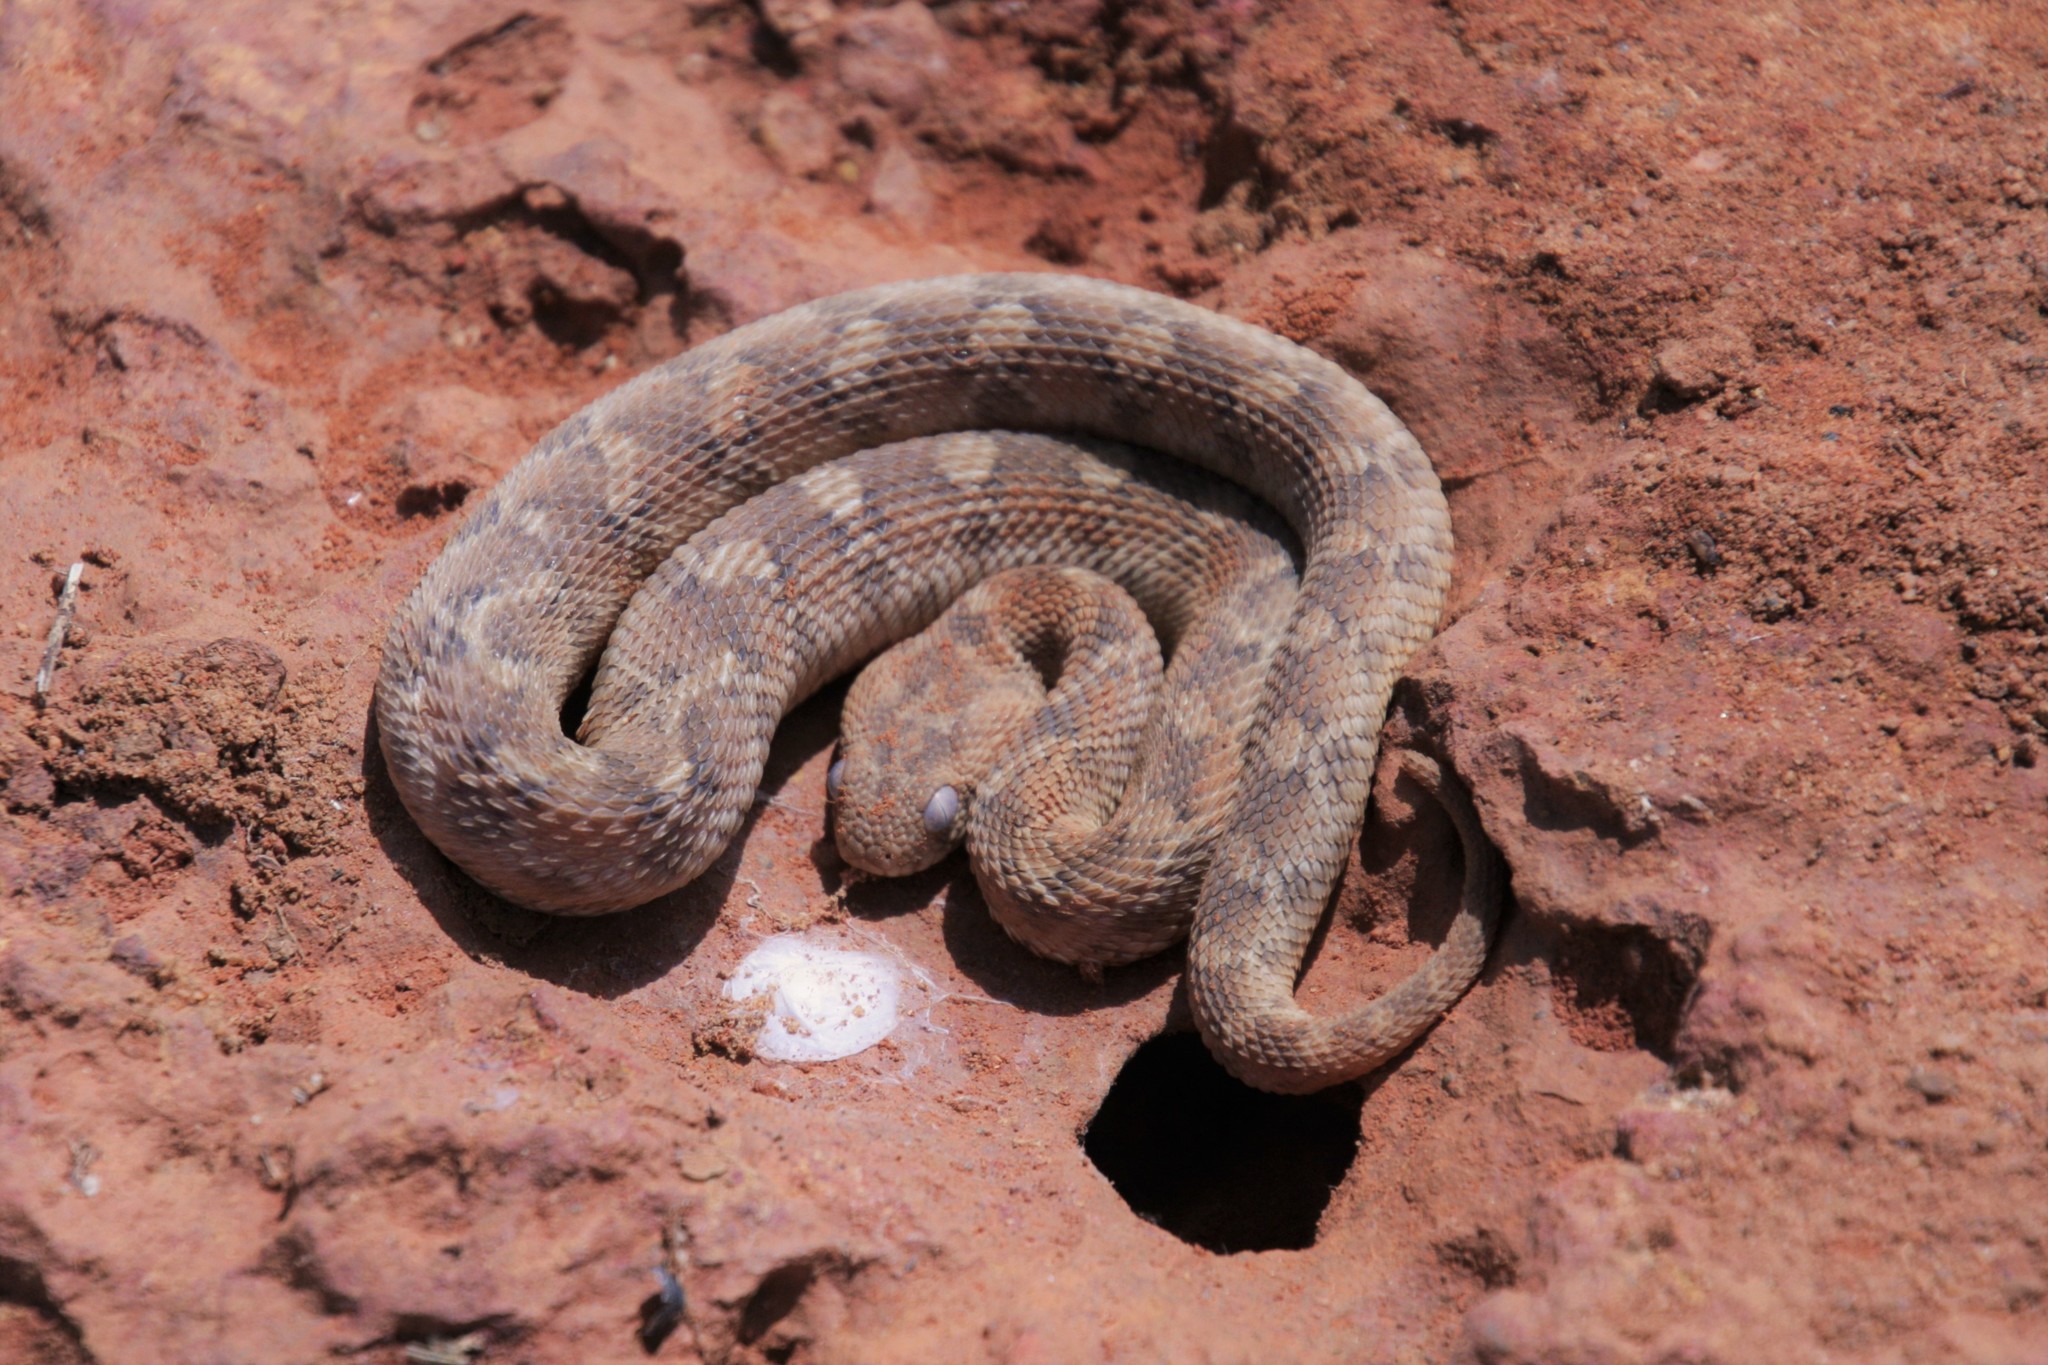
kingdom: Animalia
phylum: Chordata
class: Squamata
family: Viperidae
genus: Echis
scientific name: Echis leucogaster
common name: White-bellied carpet viper
